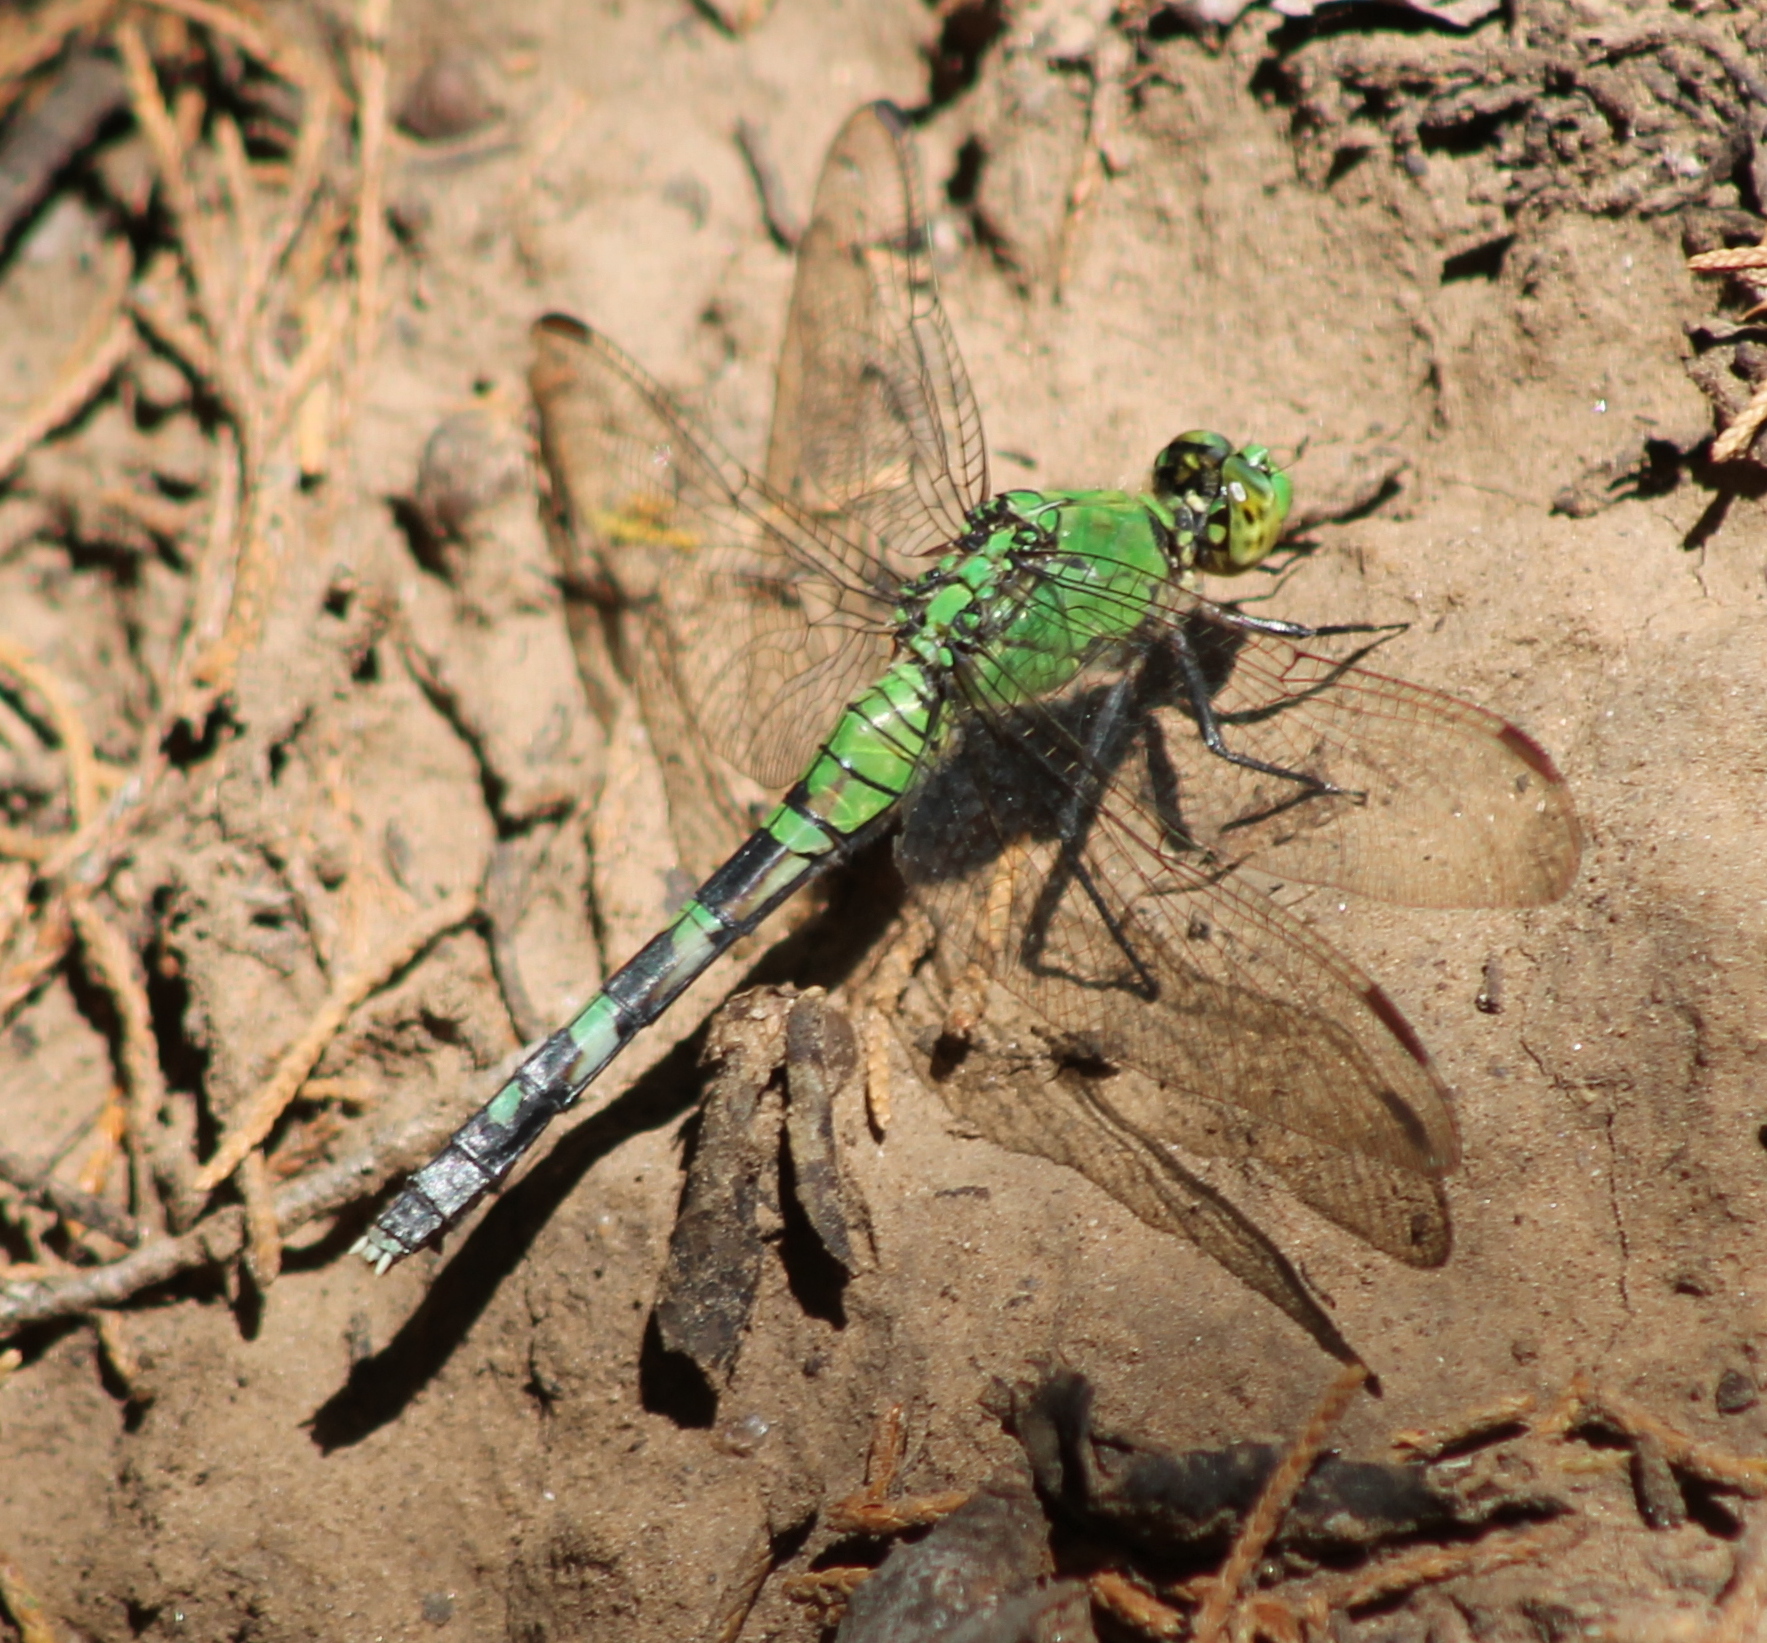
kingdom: Animalia
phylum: Arthropoda
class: Insecta
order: Odonata
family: Libellulidae
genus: Erythemis
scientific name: Erythemis simplicicollis
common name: Eastern pondhawk
